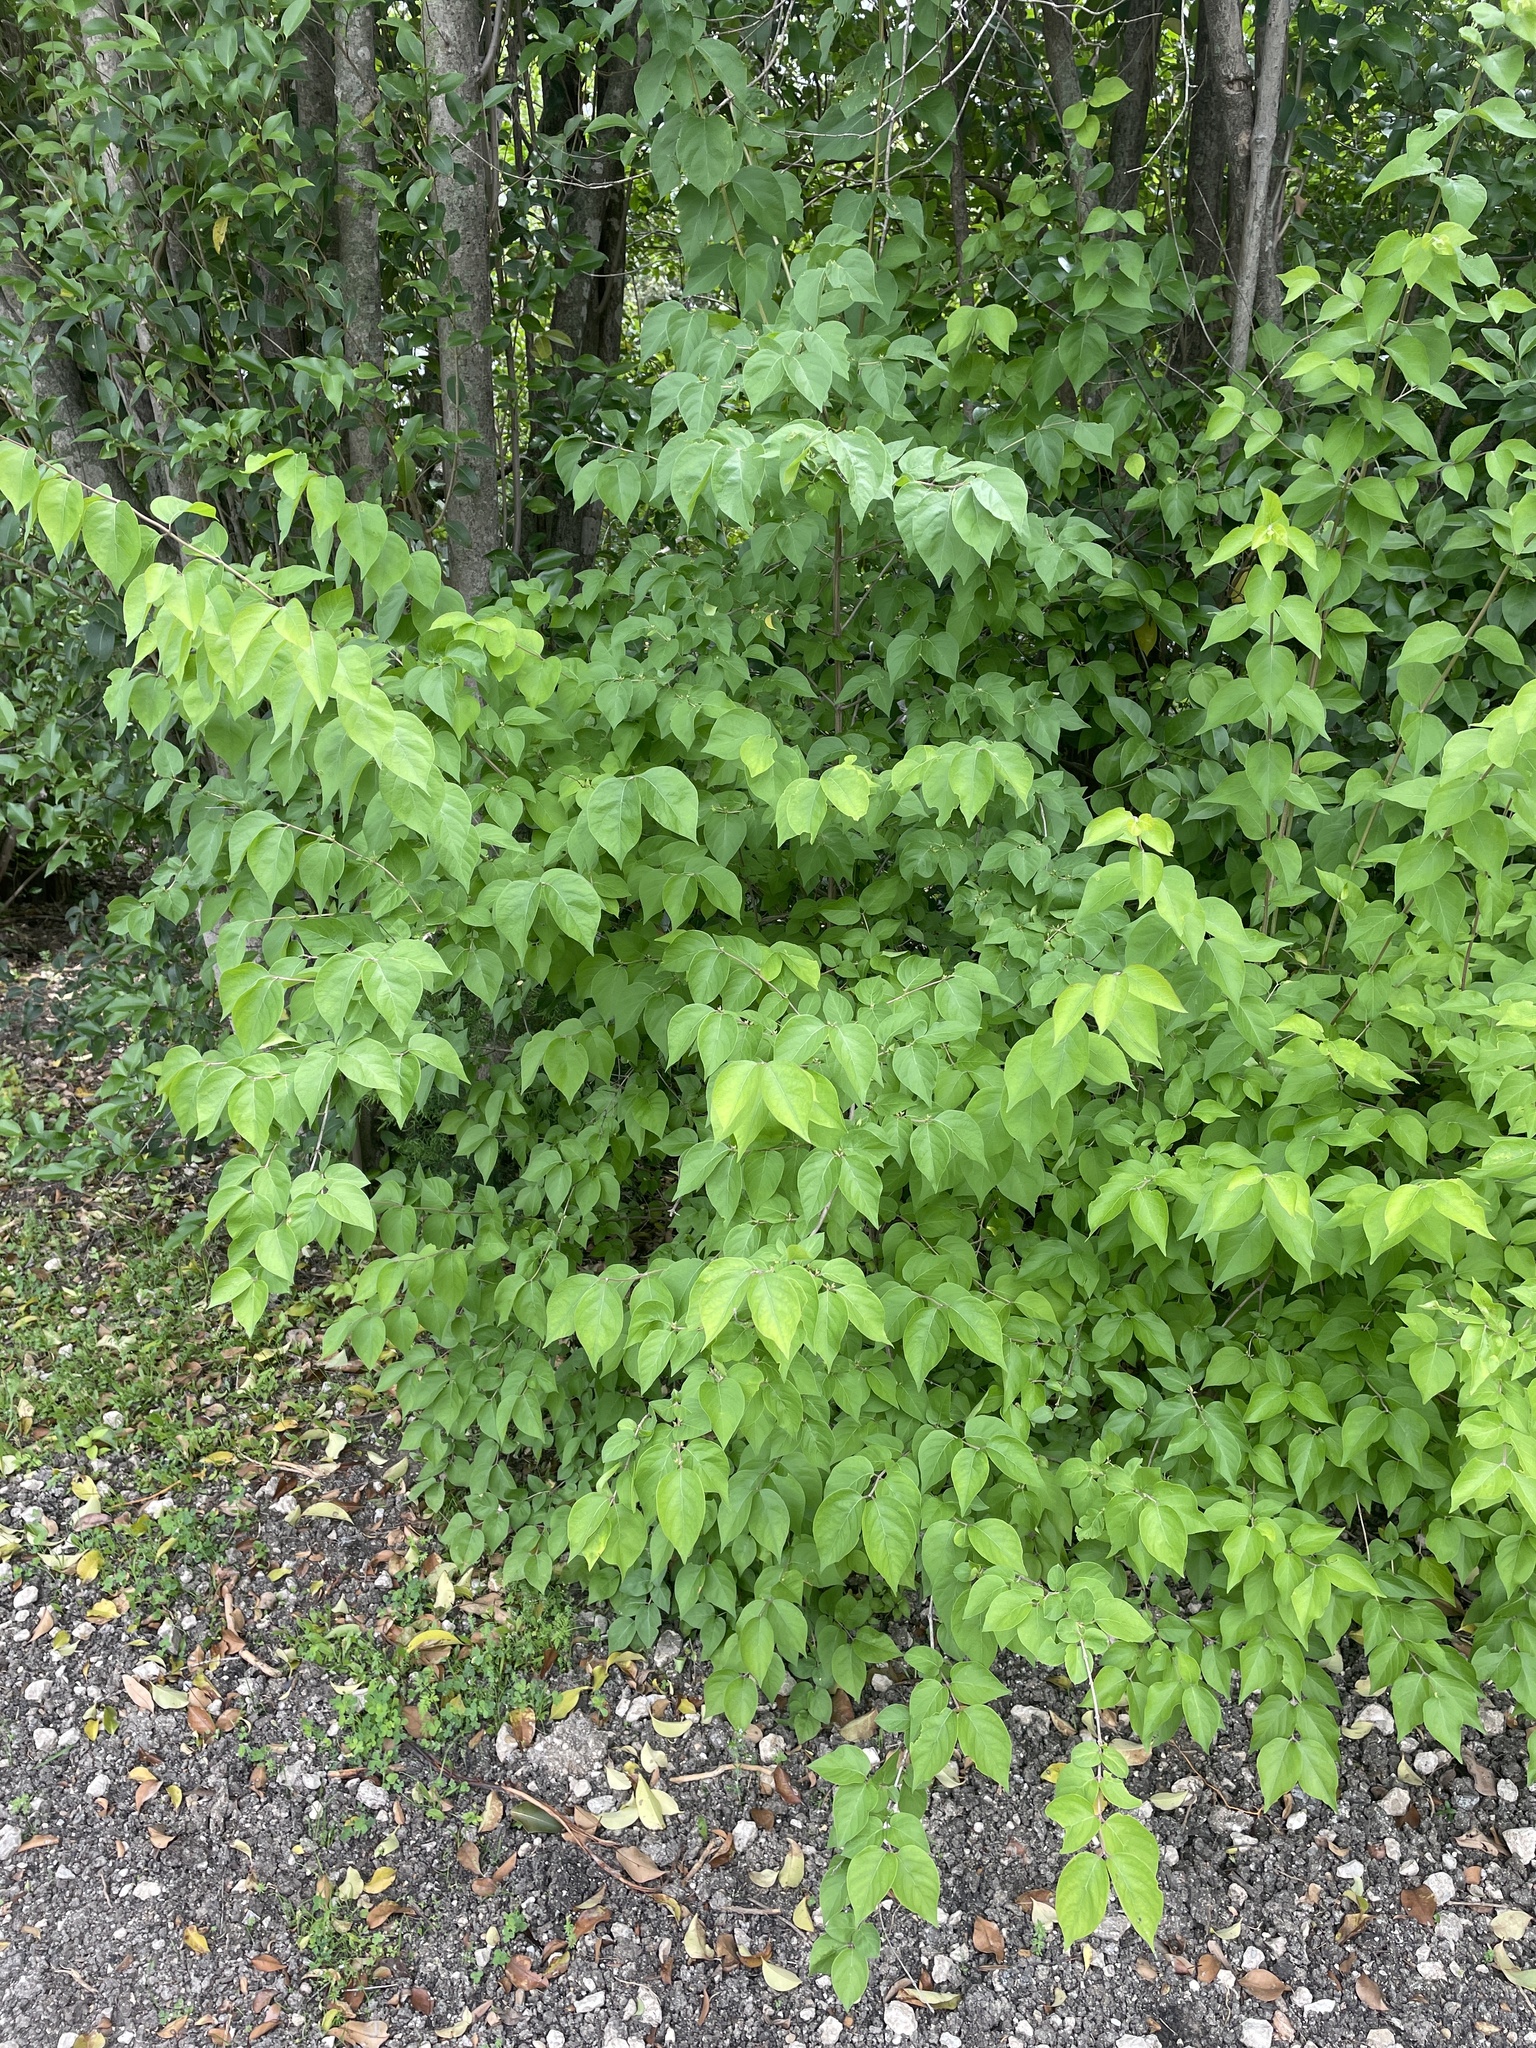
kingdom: Plantae
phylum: Tracheophyta
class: Magnoliopsida
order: Dipsacales
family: Caprifoliaceae
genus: Lonicera
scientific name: Lonicera maackii
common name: Amur honeysuckle
